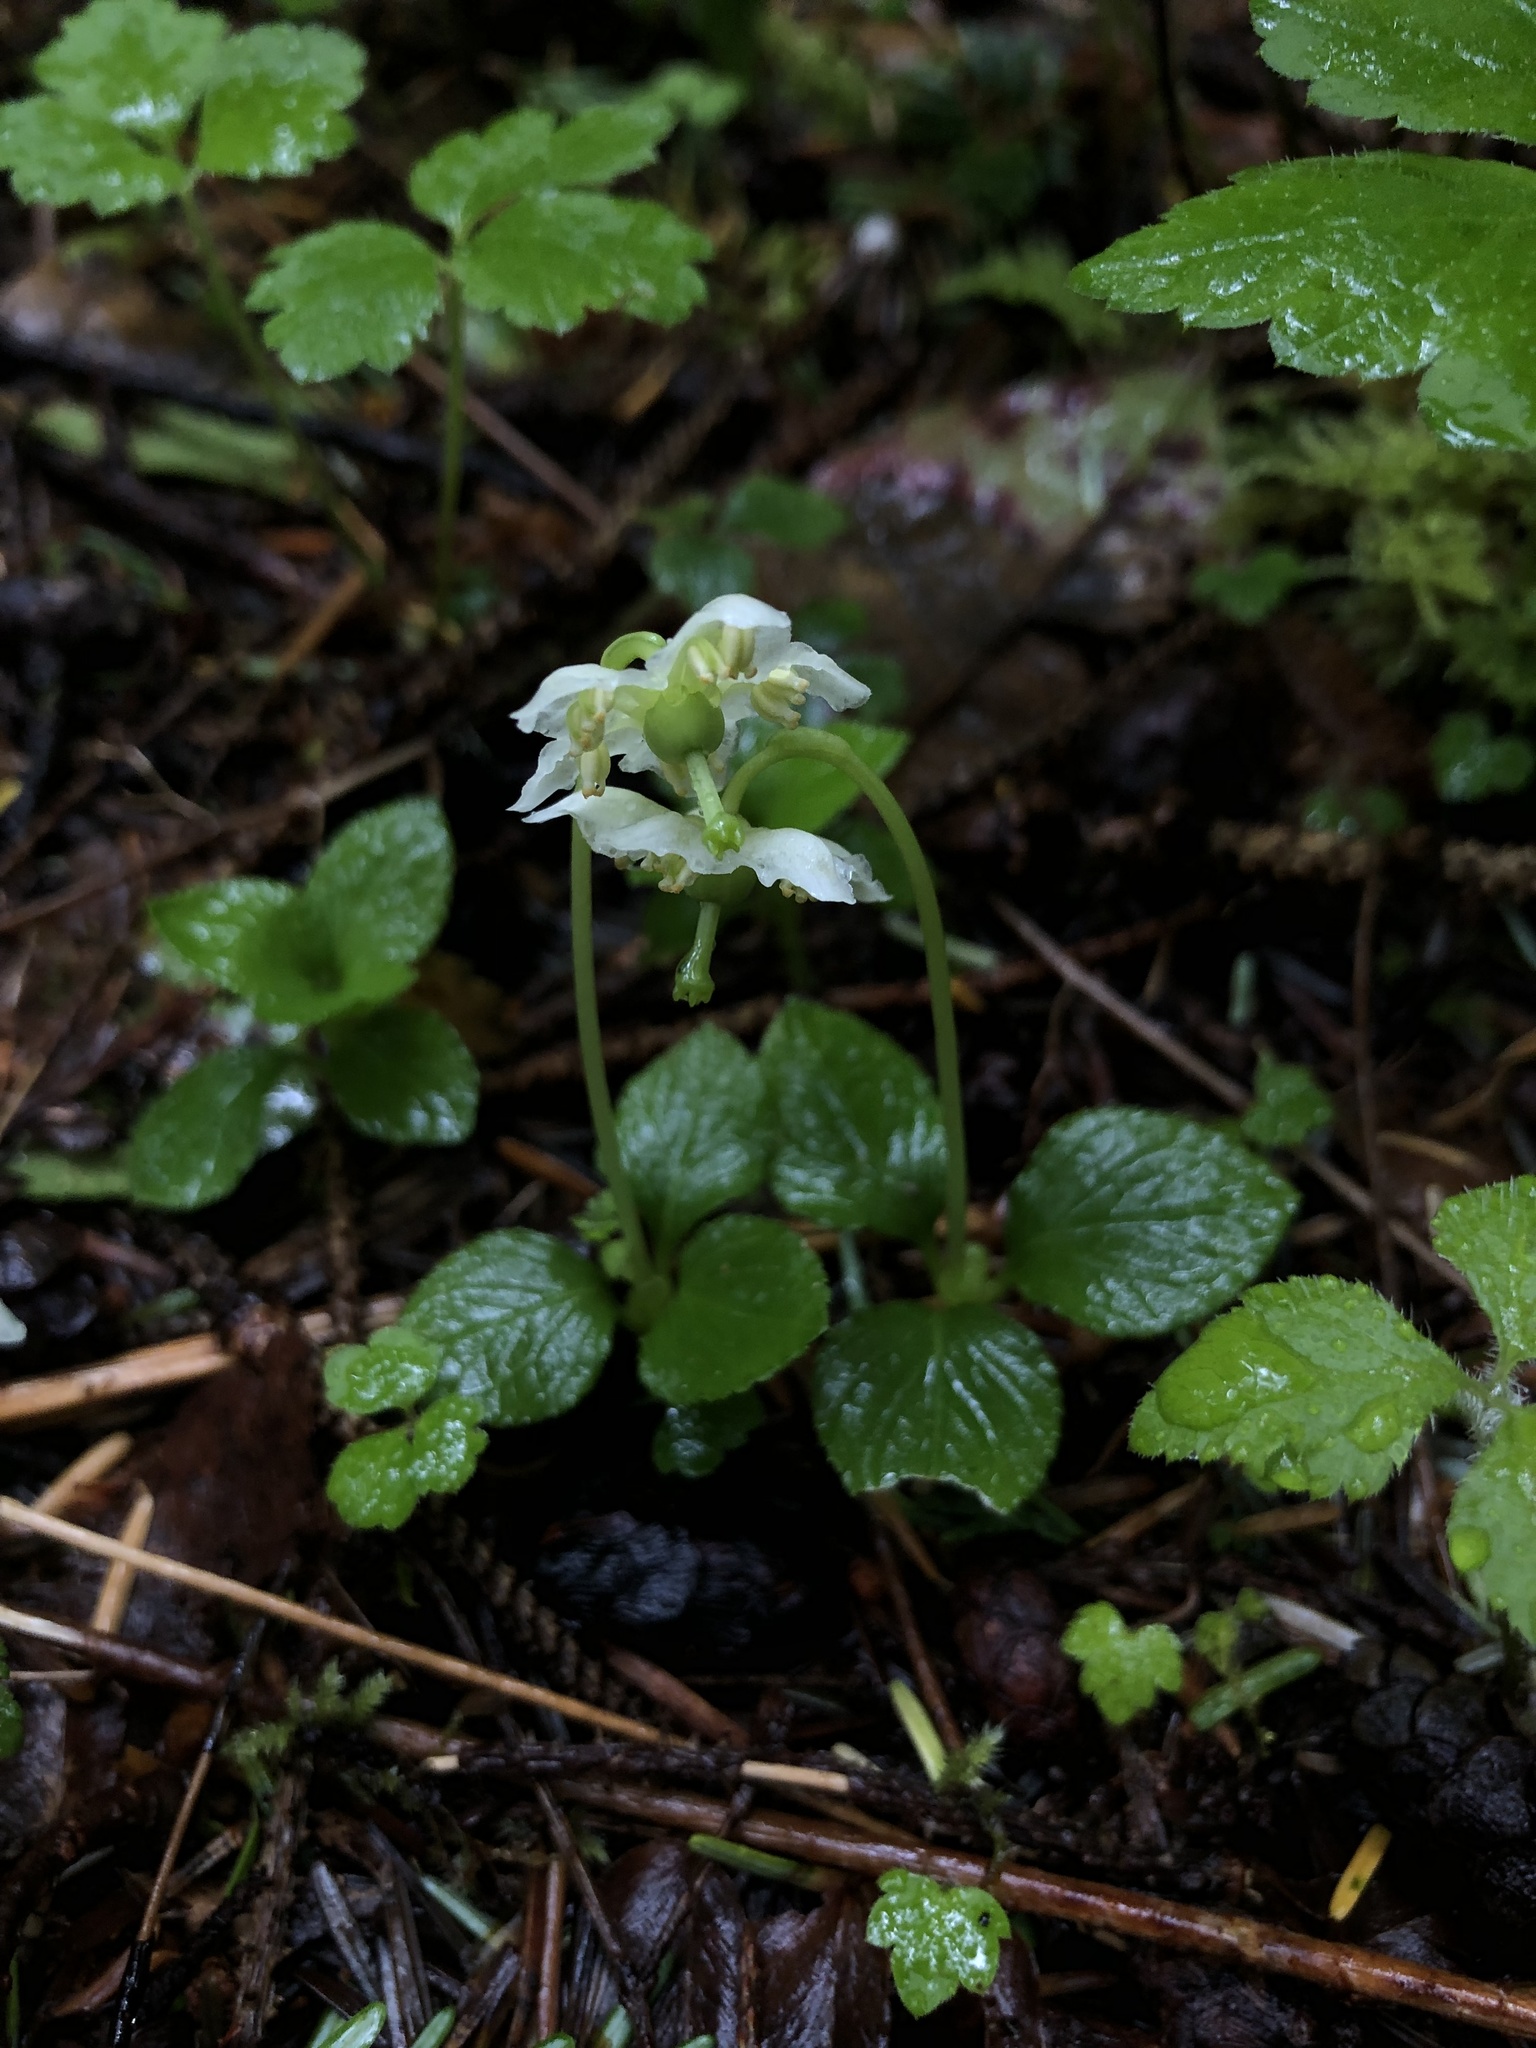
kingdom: Plantae
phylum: Tracheophyta
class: Magnoliopsida
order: Ericales
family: Ericaceae
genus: Moneses
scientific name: Moneses uniflora
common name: One-flowered wintergreen
